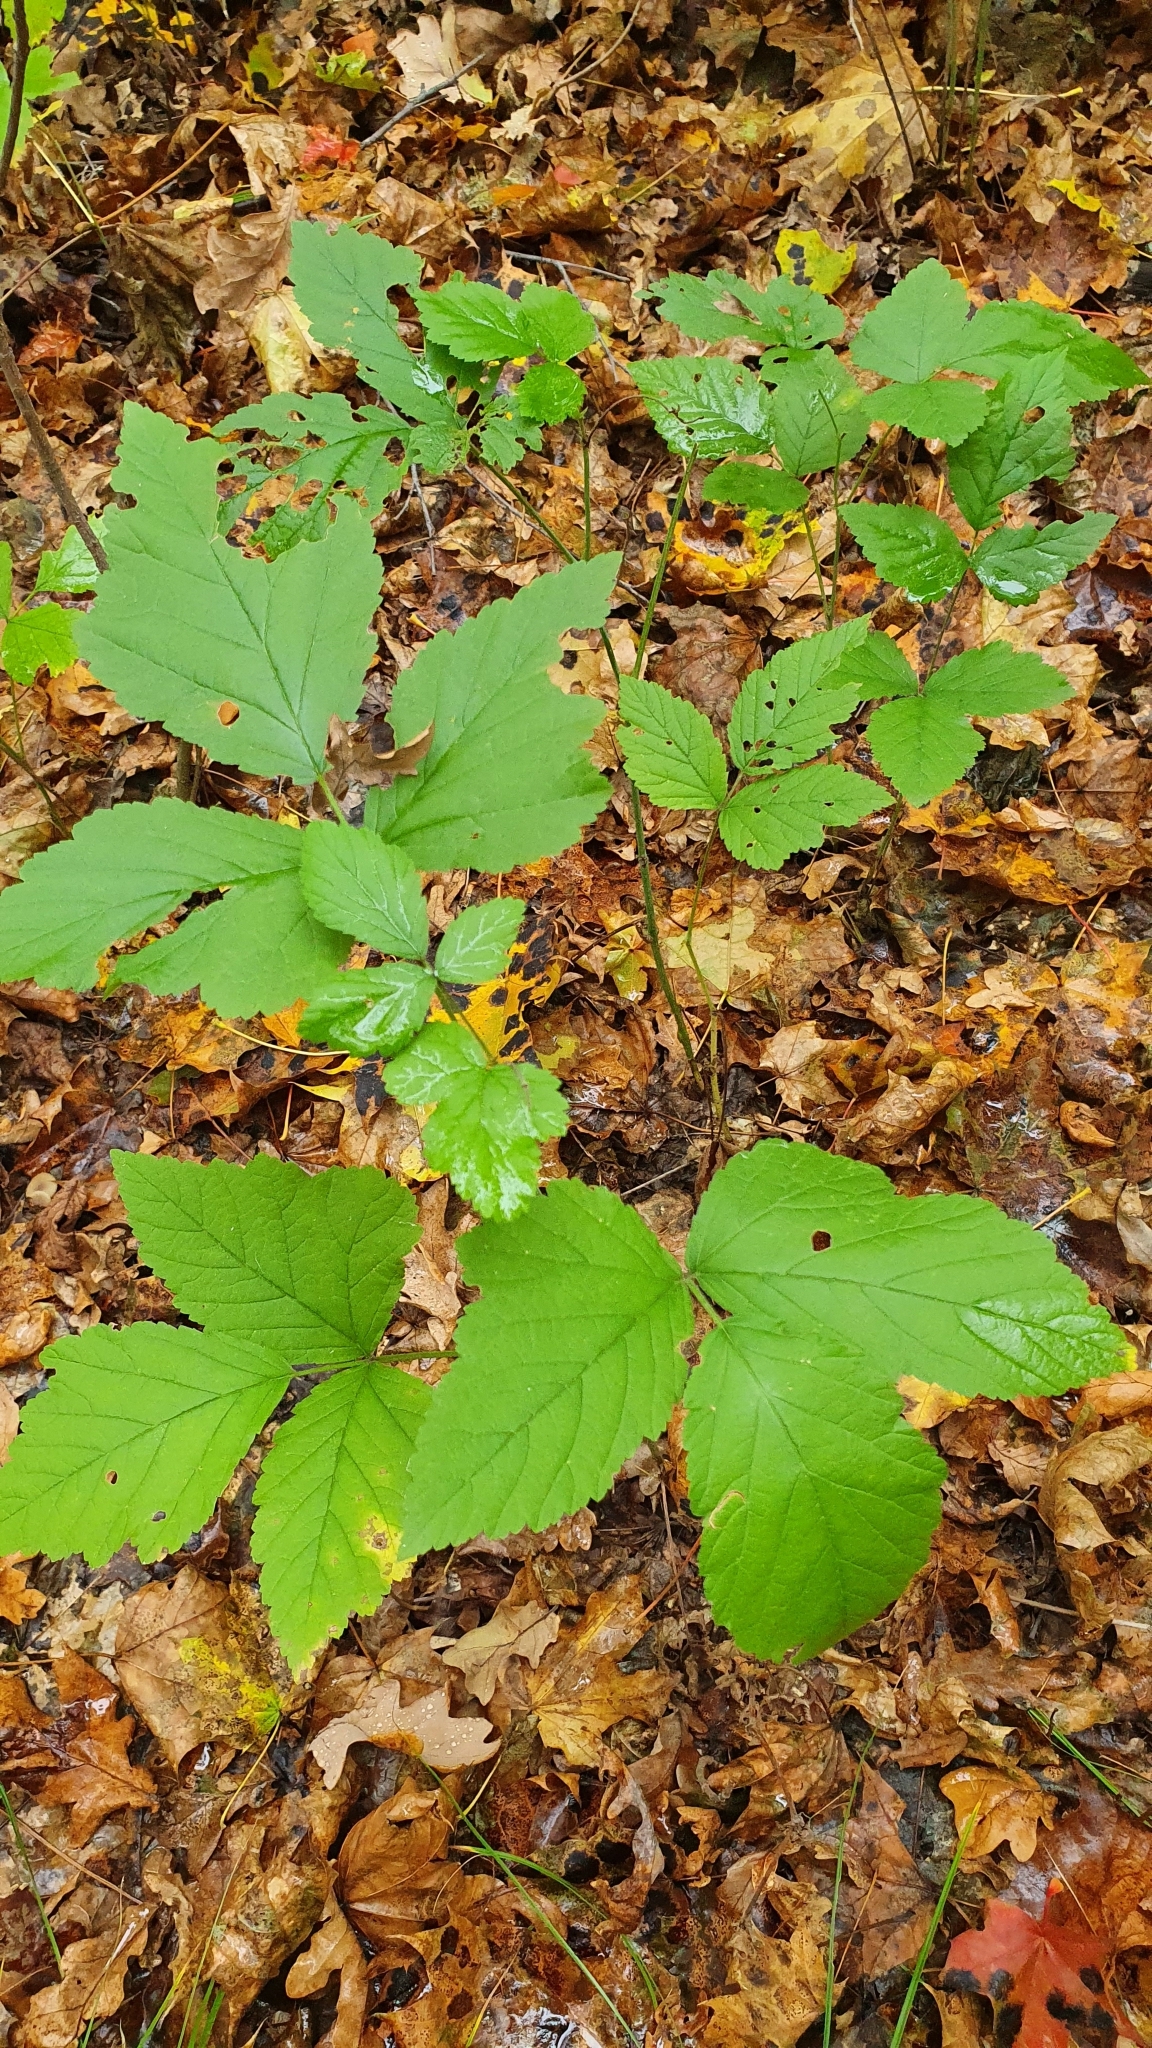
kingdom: Plantae
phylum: Tracheophyta
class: Magnoliopsida
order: Rosales
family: Rosaceae
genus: Rubus
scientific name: Rubus saxatilis
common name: Stone bramble
